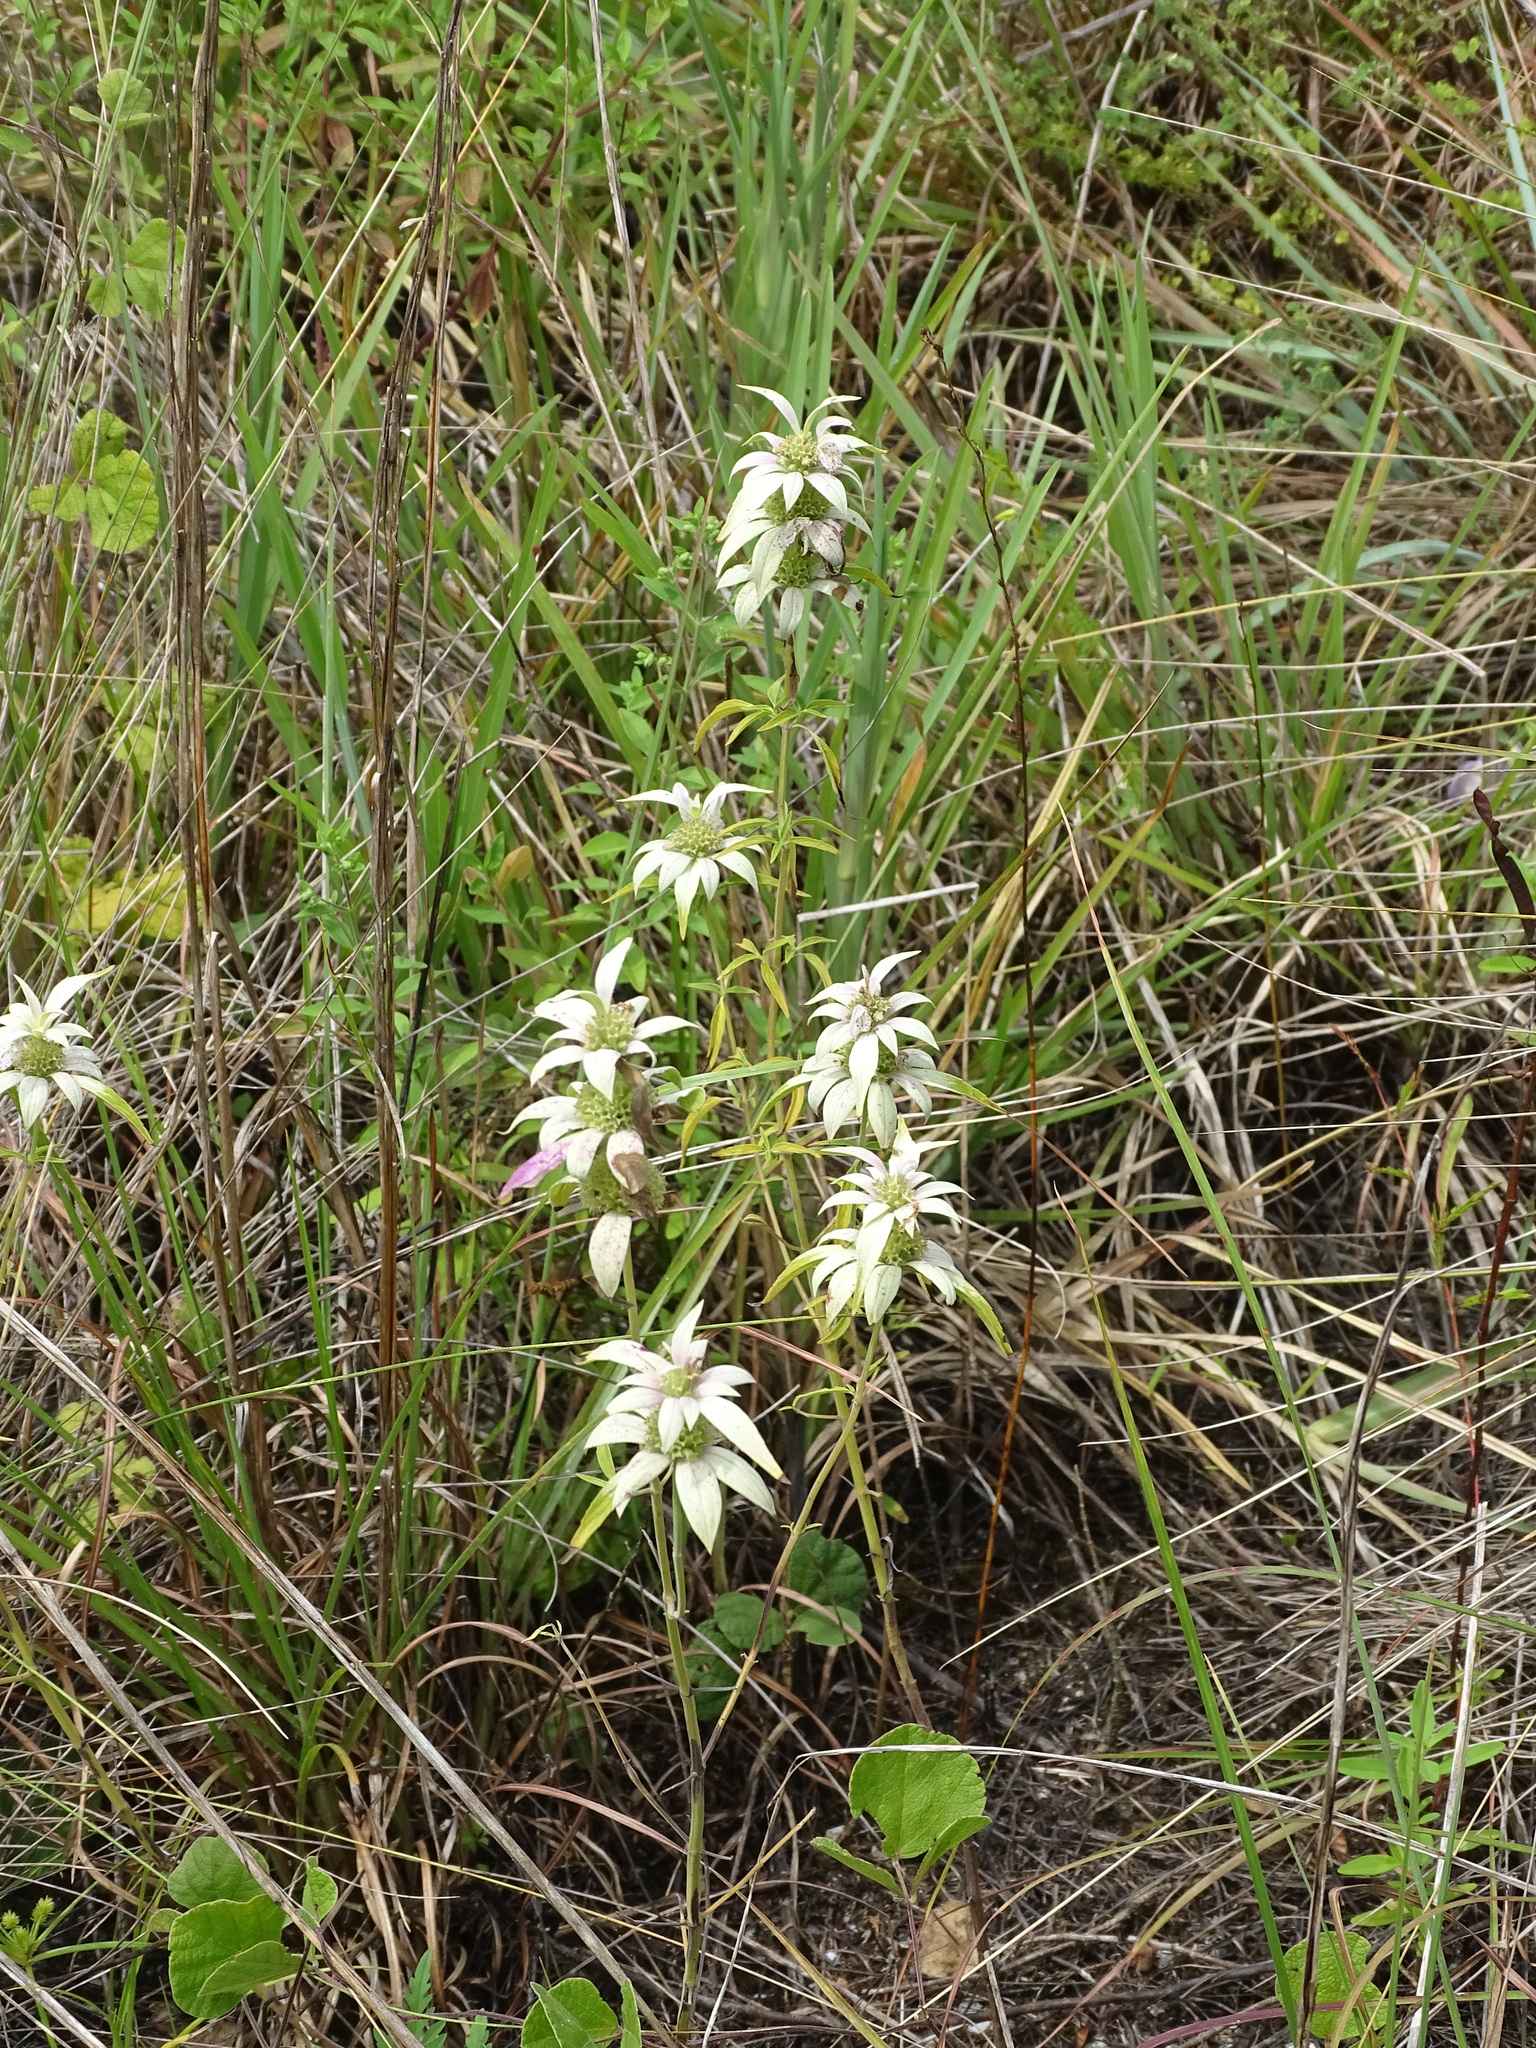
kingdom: Plantae
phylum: Tracheophyta
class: Magnoliopsida
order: Lamiales
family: Lamiaceae
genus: Monarda
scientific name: Monarda punctata
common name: Dotted monarda
